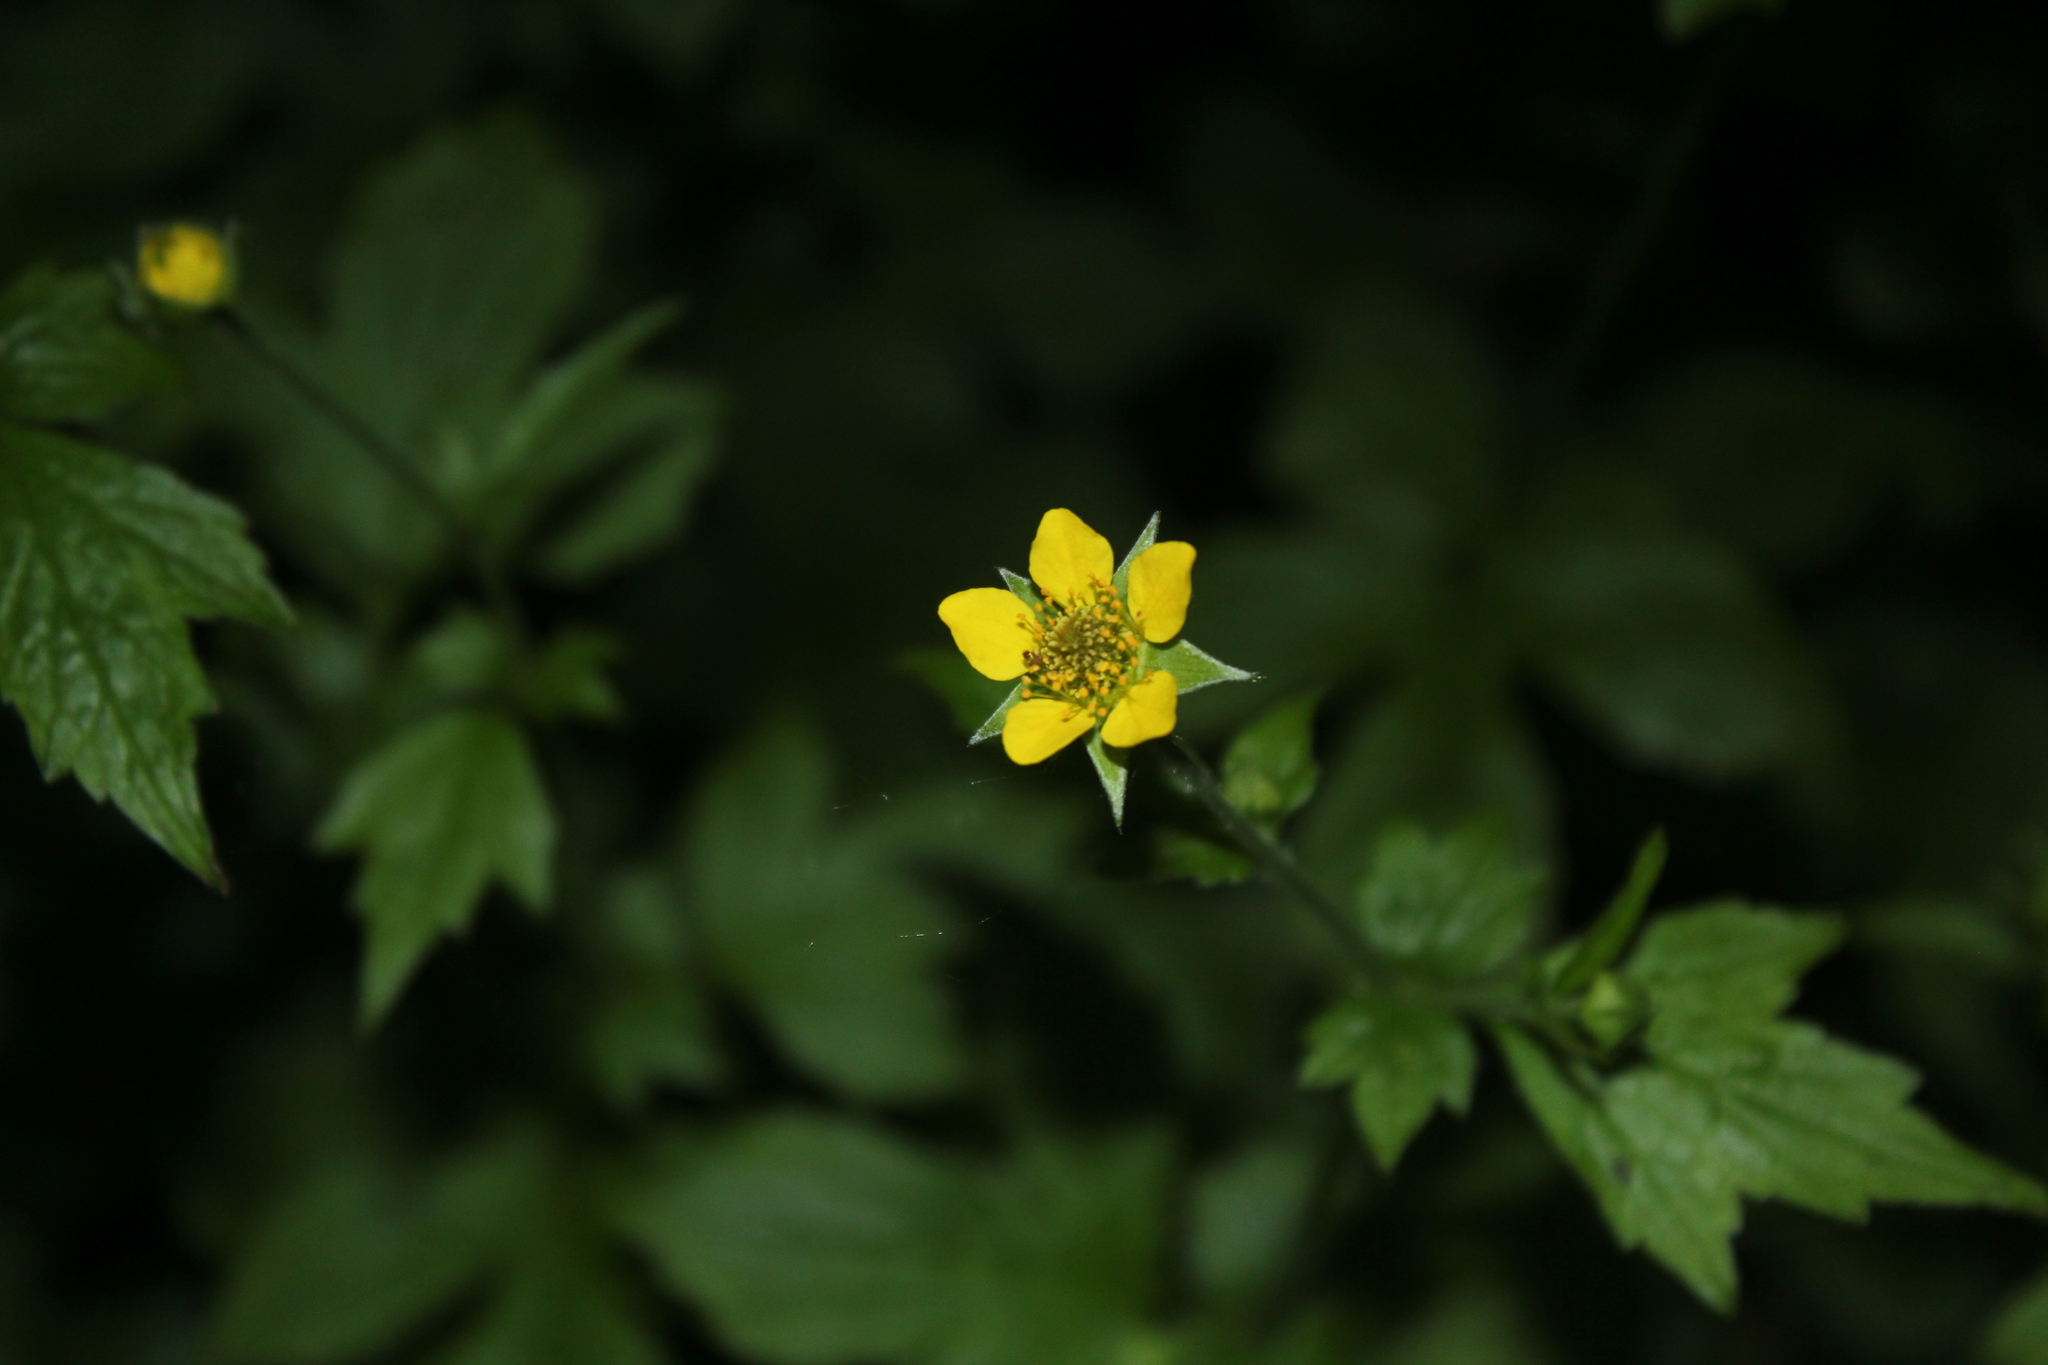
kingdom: Plantae
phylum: Tracheophyta
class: Magnoliopsida
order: Rosales
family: Rosaceae
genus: Geum
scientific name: Geum urbanum
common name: Wood avens
